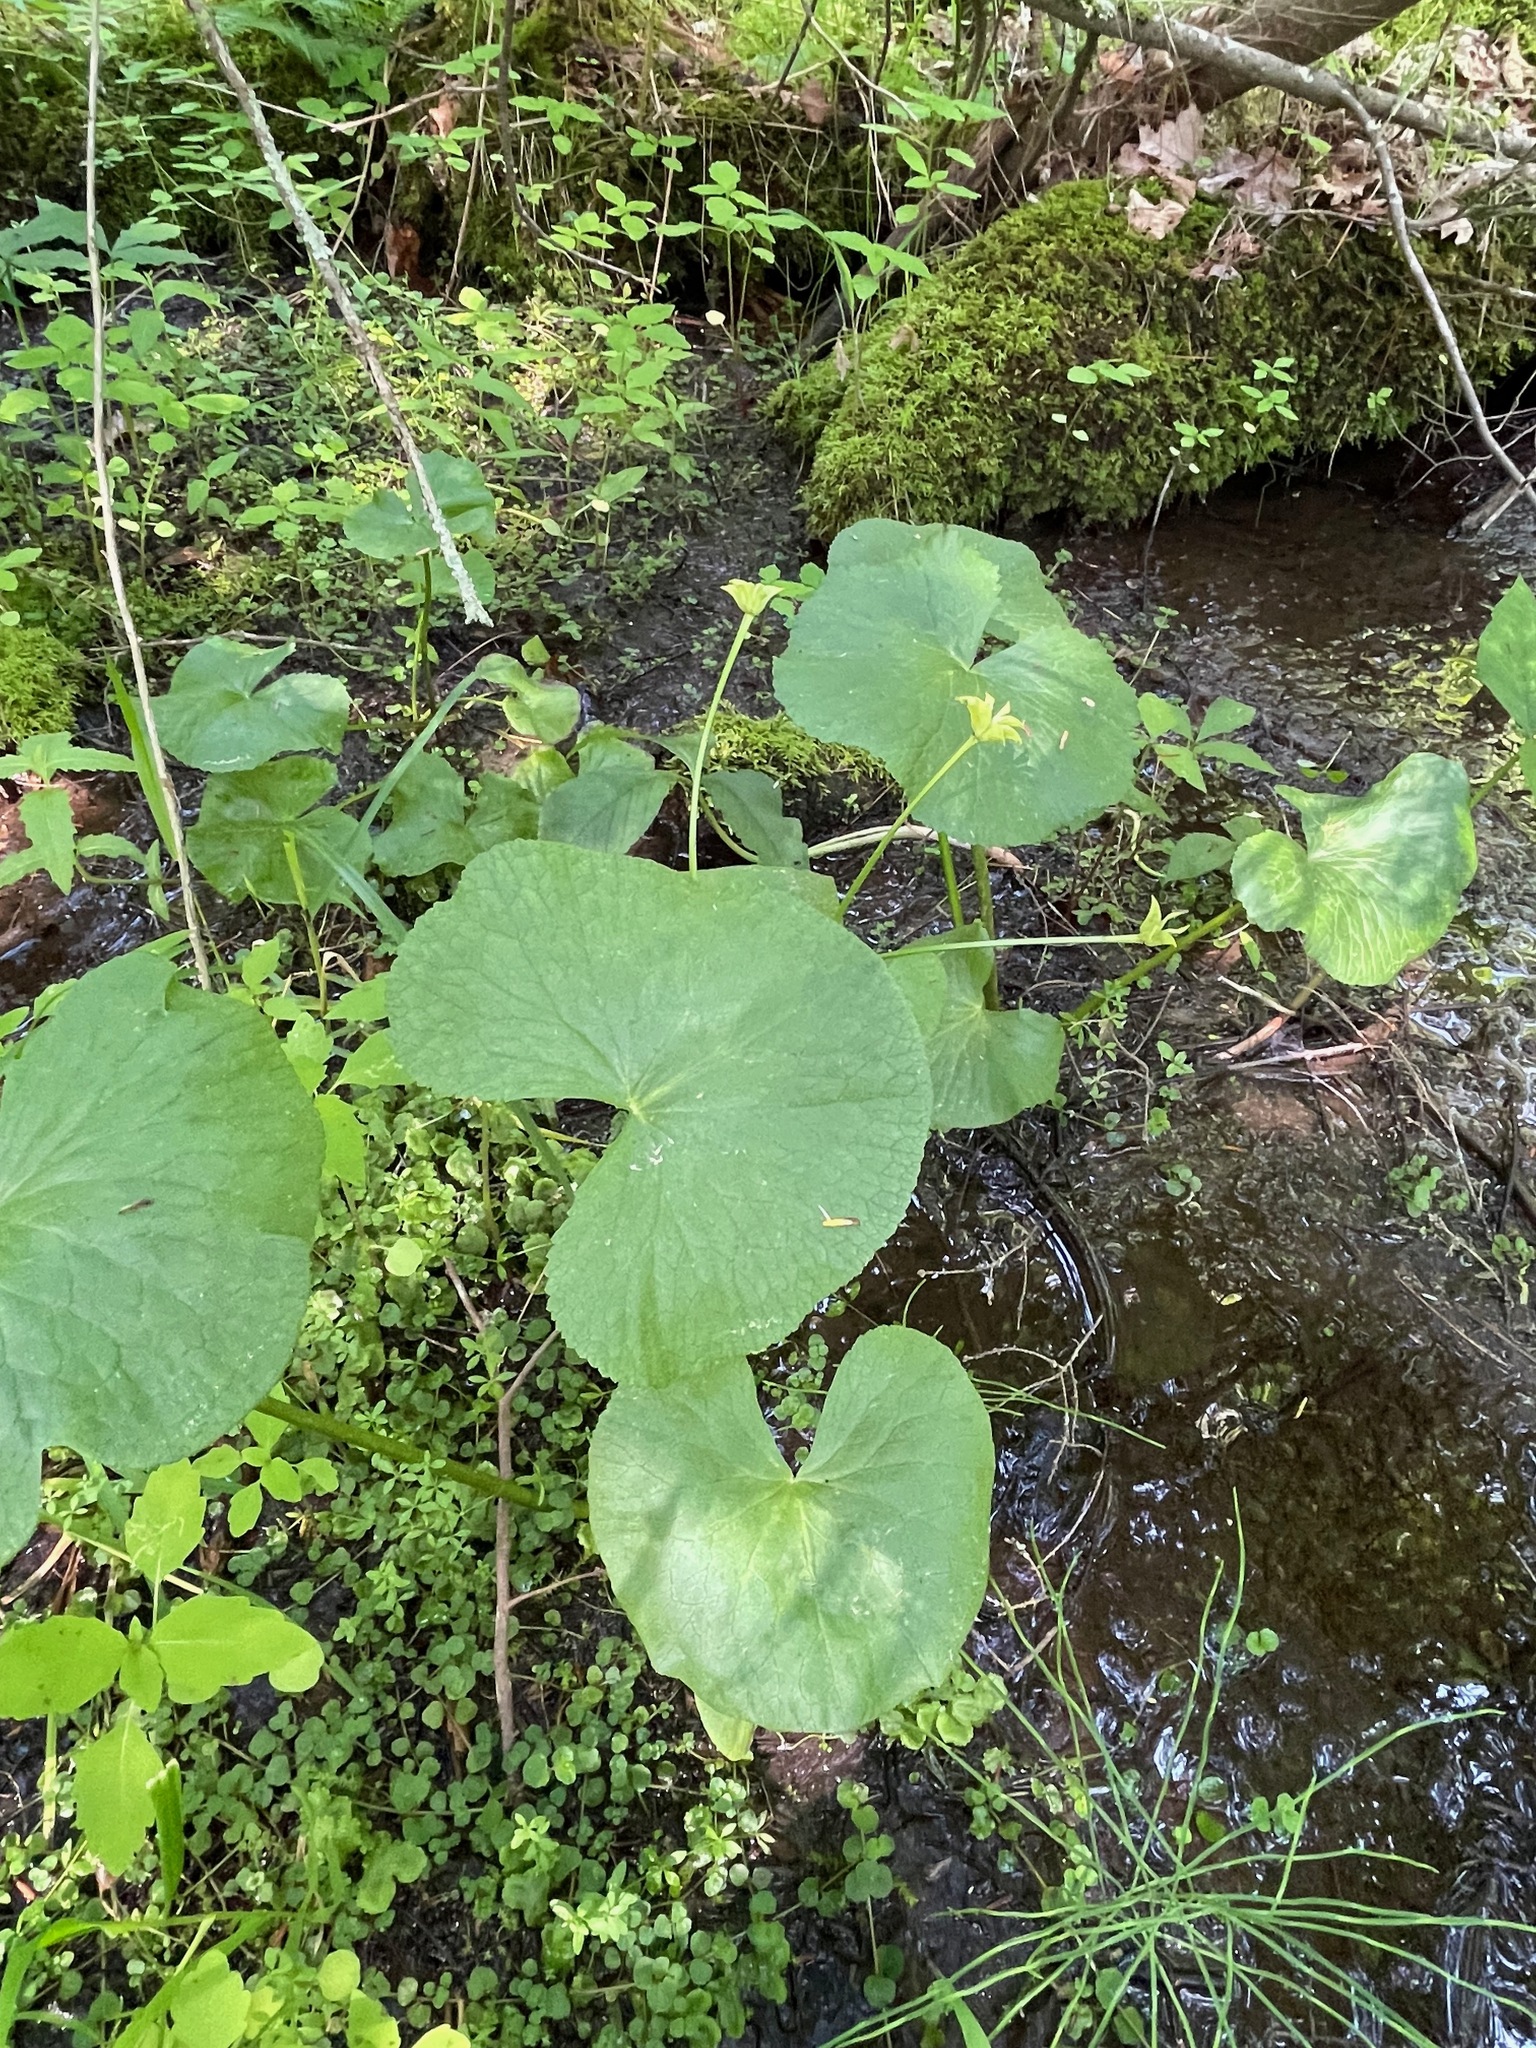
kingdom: Plantae
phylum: Tracheophyta
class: Magnoliopsida
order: Ranunculales
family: Ranunculaceae
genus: Caltha
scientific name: Caltha palustris
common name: Marsh marigold
